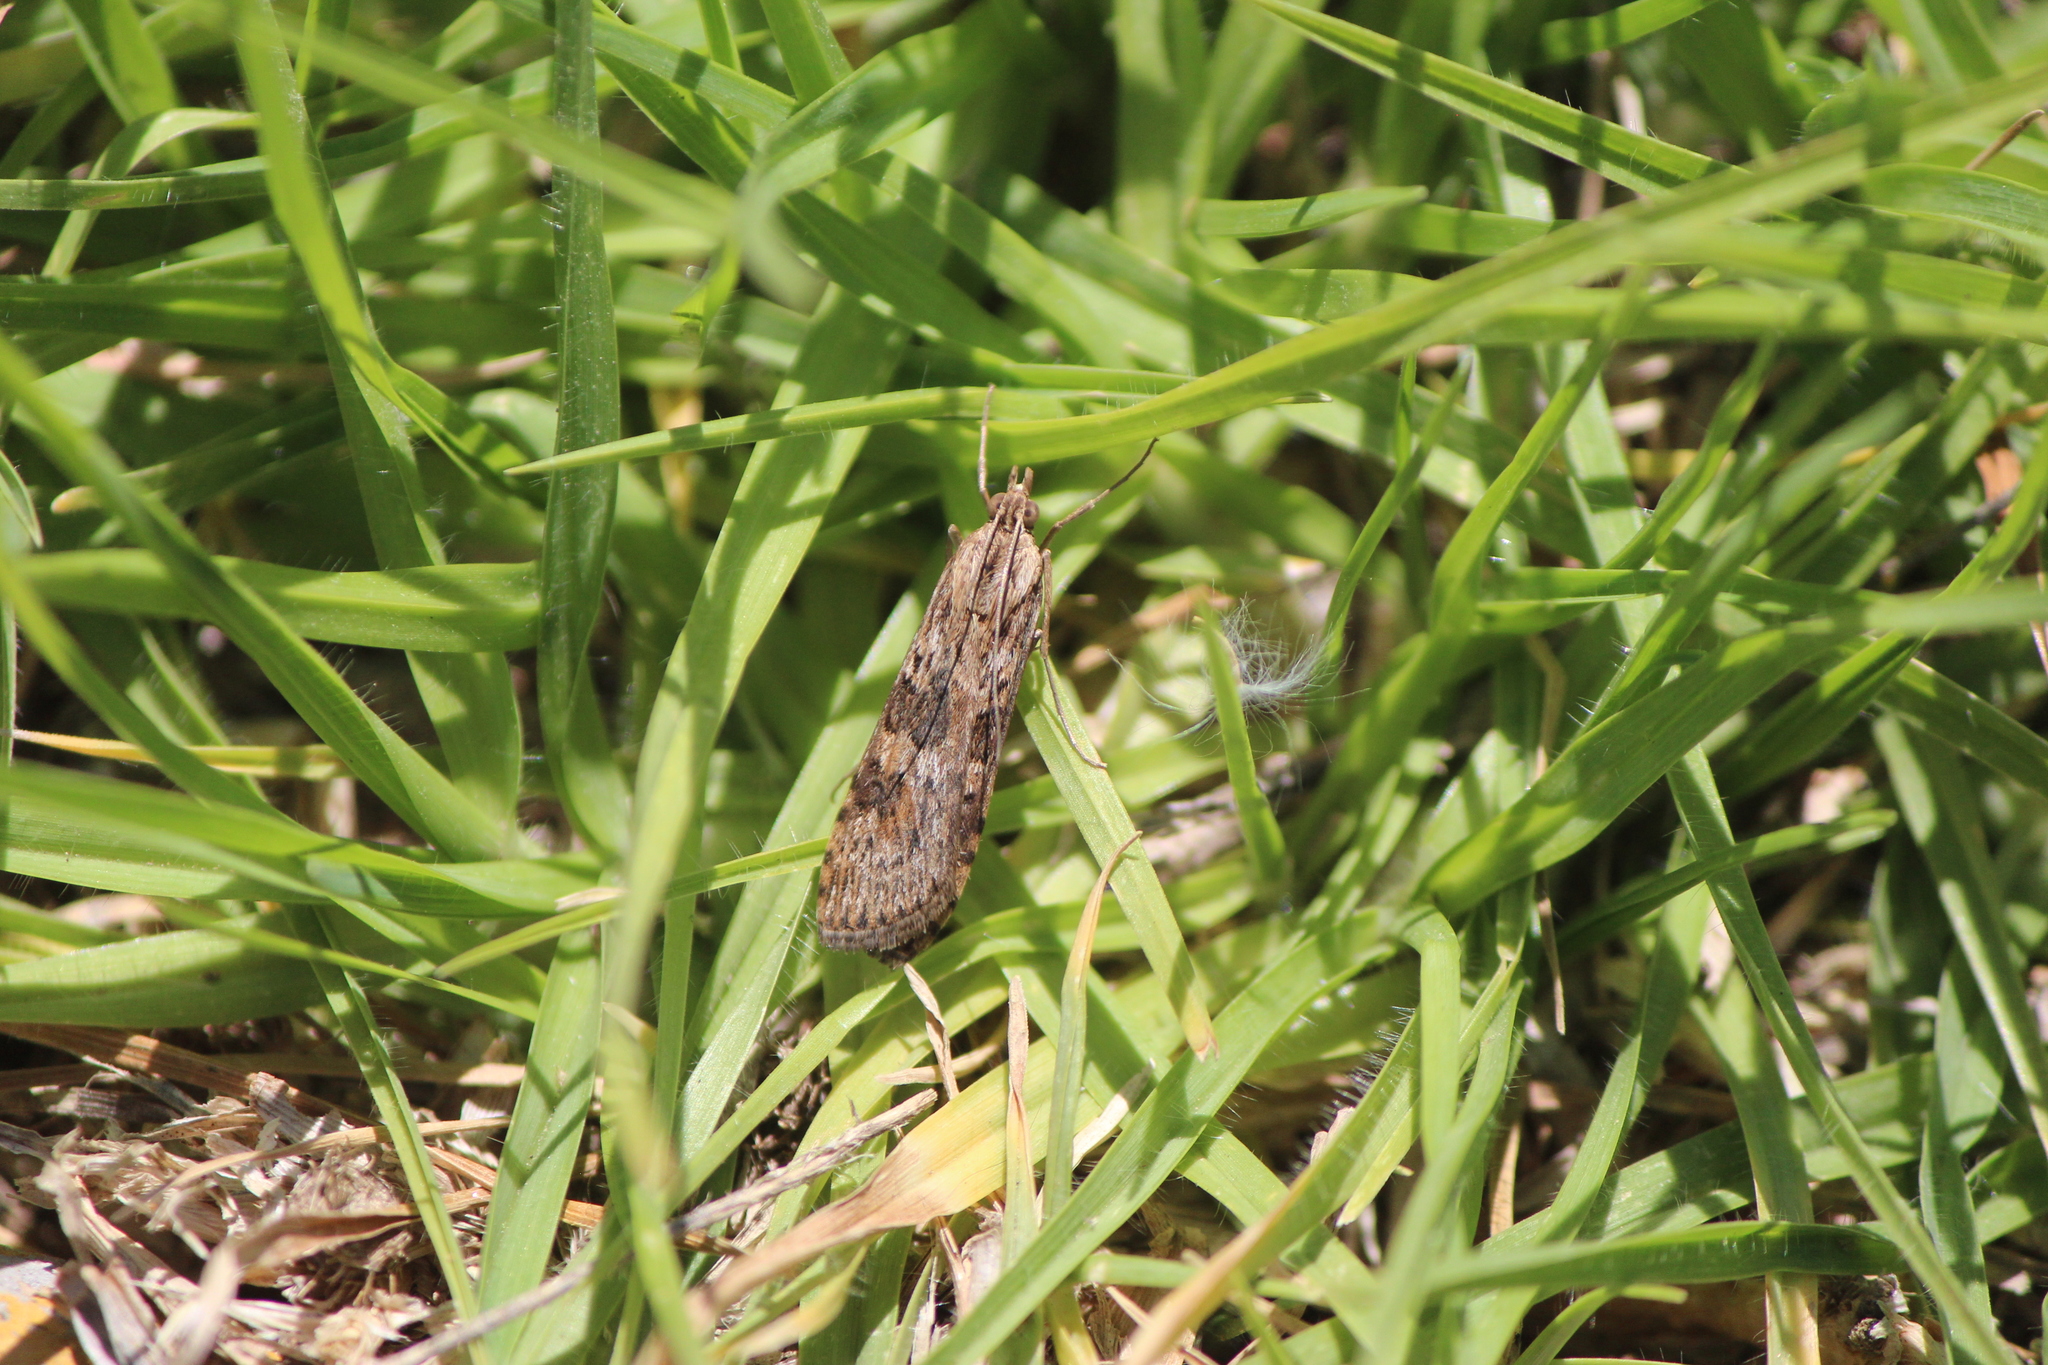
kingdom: Animalia
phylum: Arthropoda
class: Insecta
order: Lepidoptera
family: Crambidae
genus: Nomophila
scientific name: Nomophila nearctica
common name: American rush veneer
